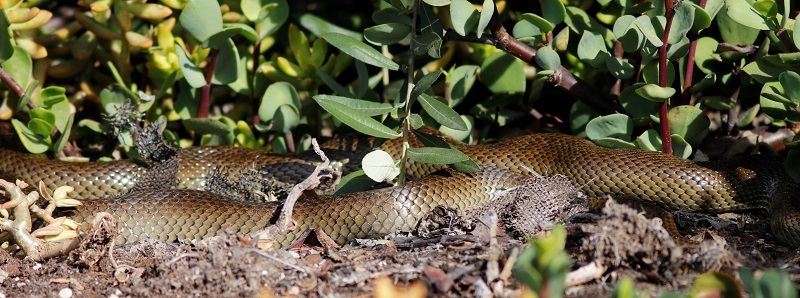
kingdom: Animalia
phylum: Chordata
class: Squamata
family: Pseudaspididae
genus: Pseudaspis
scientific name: Pseudaspis cana
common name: Mole snake
